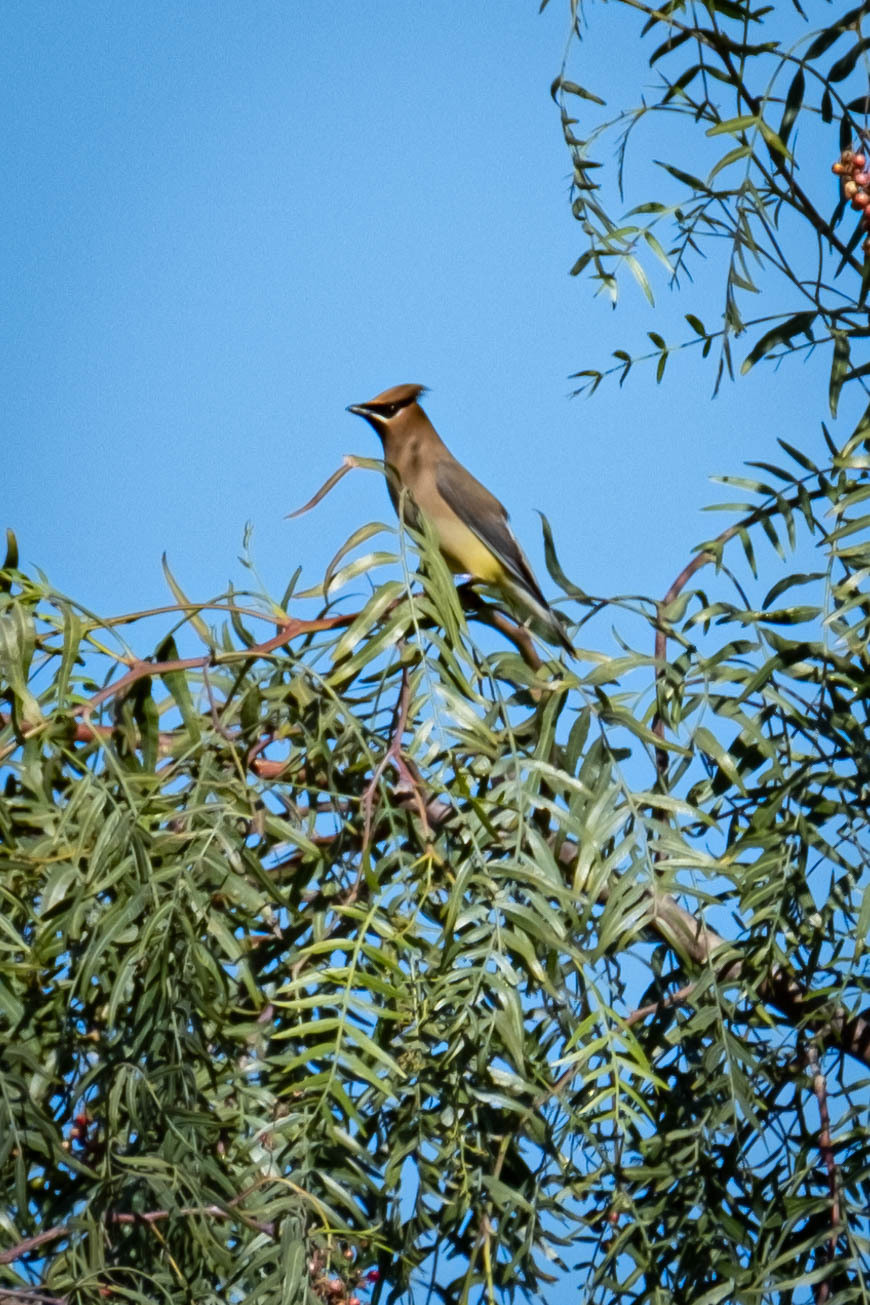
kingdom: Animalia
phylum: Chordata
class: Aves
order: Passeriformes
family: Bombycillidae
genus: Bombycilla
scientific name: Bombycilla cedrorum
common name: Cedar waxwing
